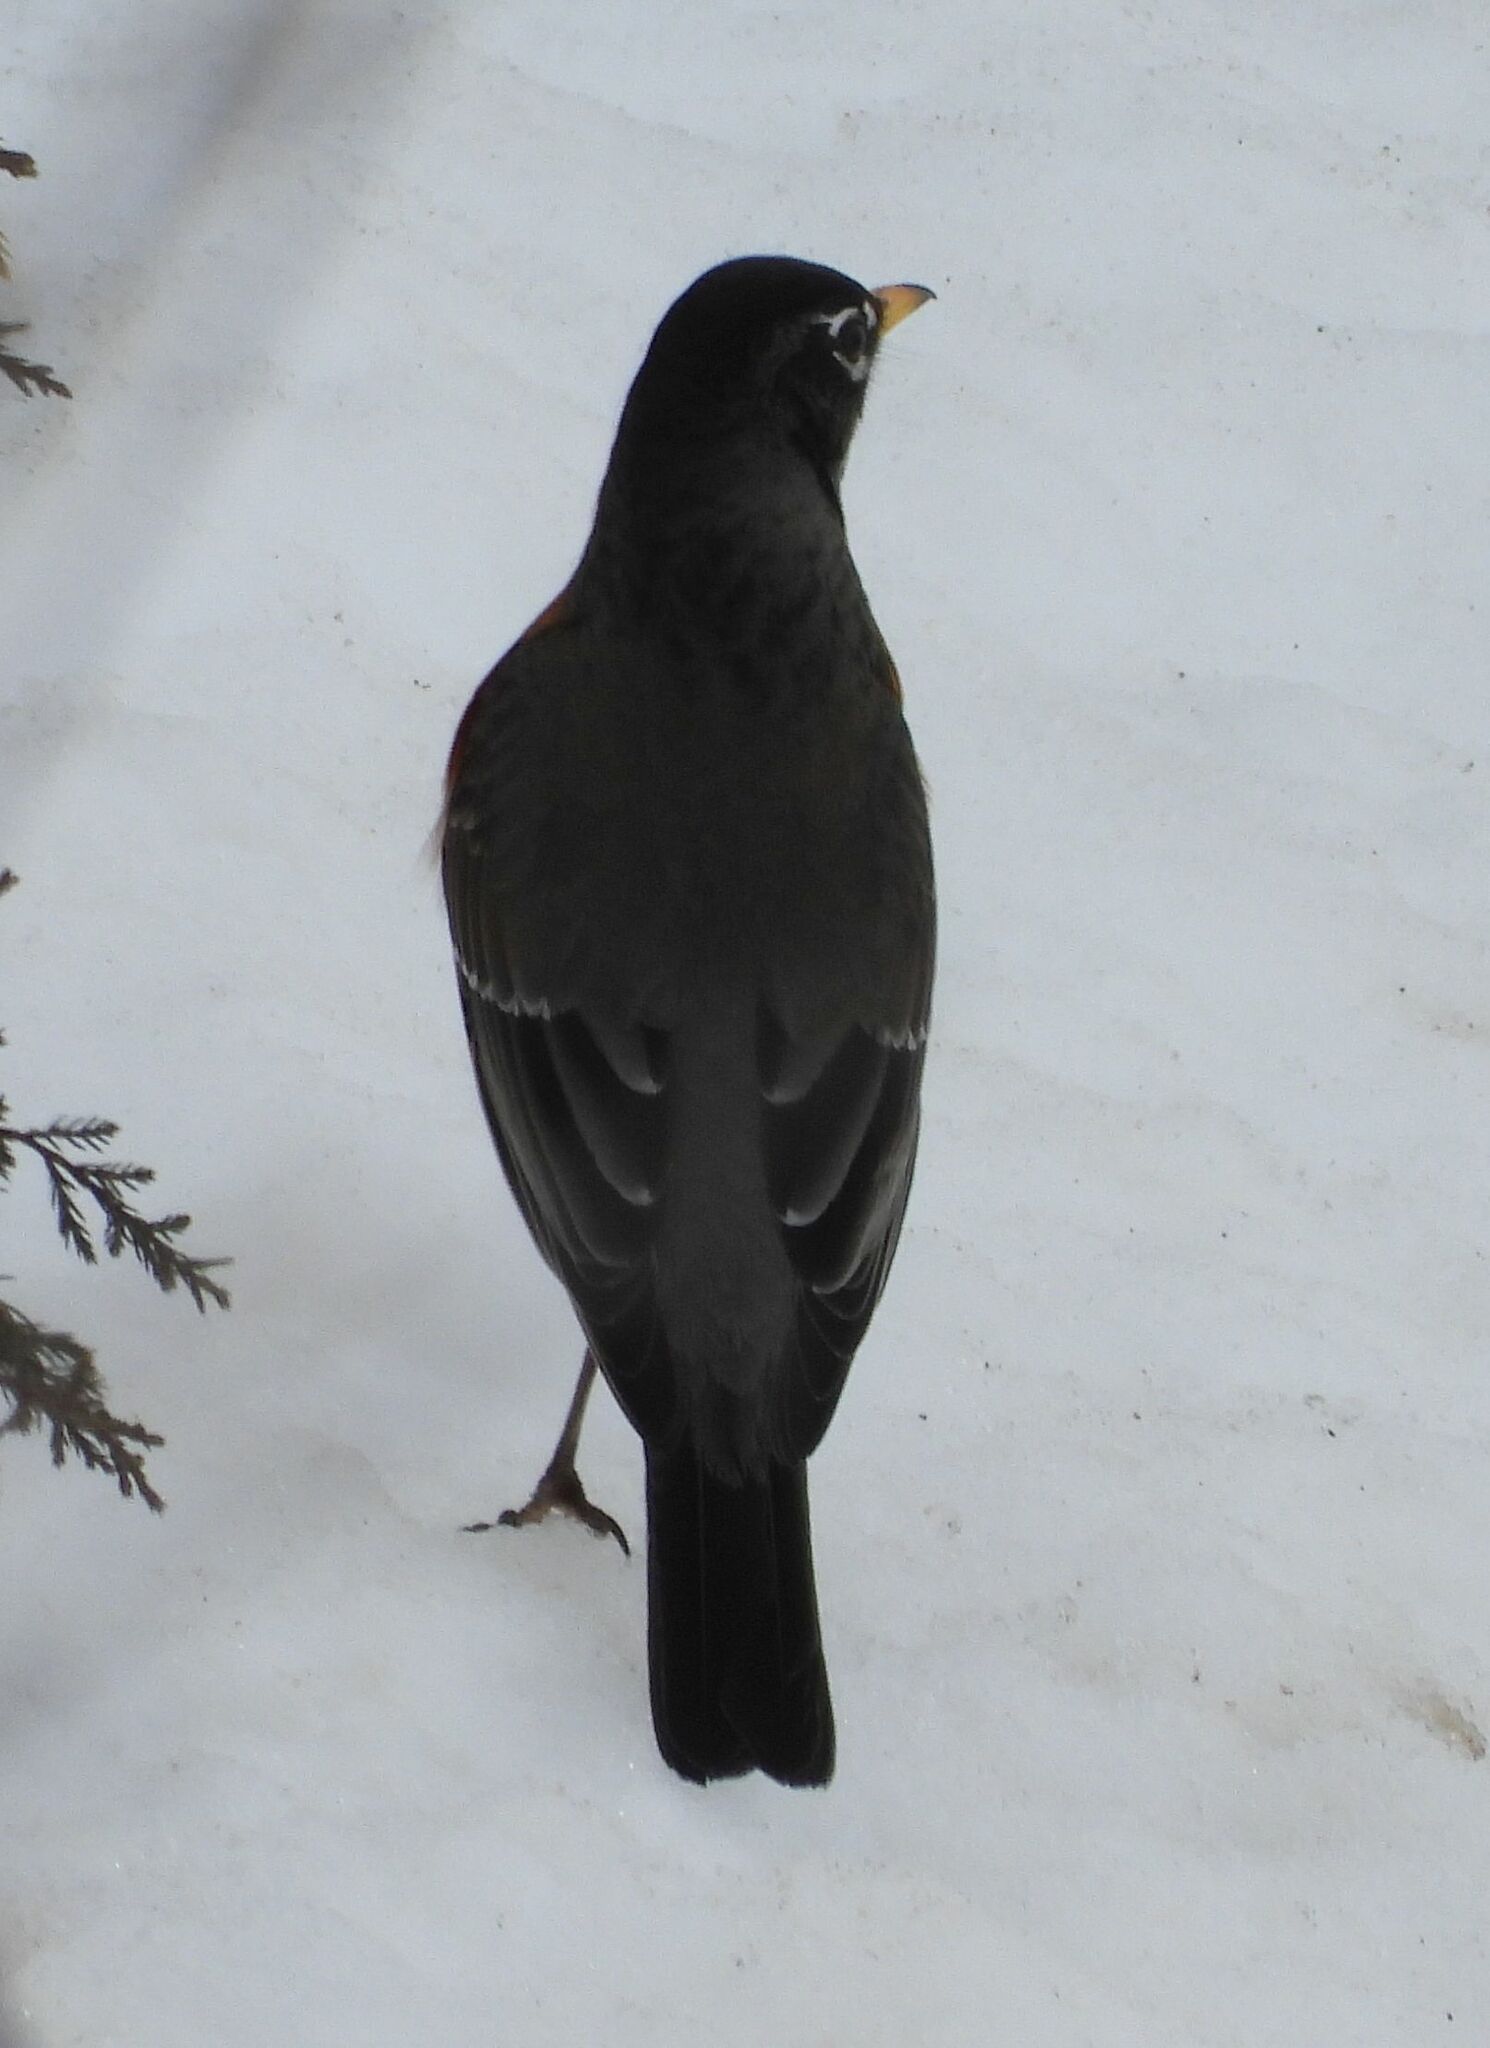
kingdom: Animalia
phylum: Chordata
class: Aves
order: Passeriformes
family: Turdidae
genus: Turdus
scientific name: Turdus migratorius
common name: American robin
